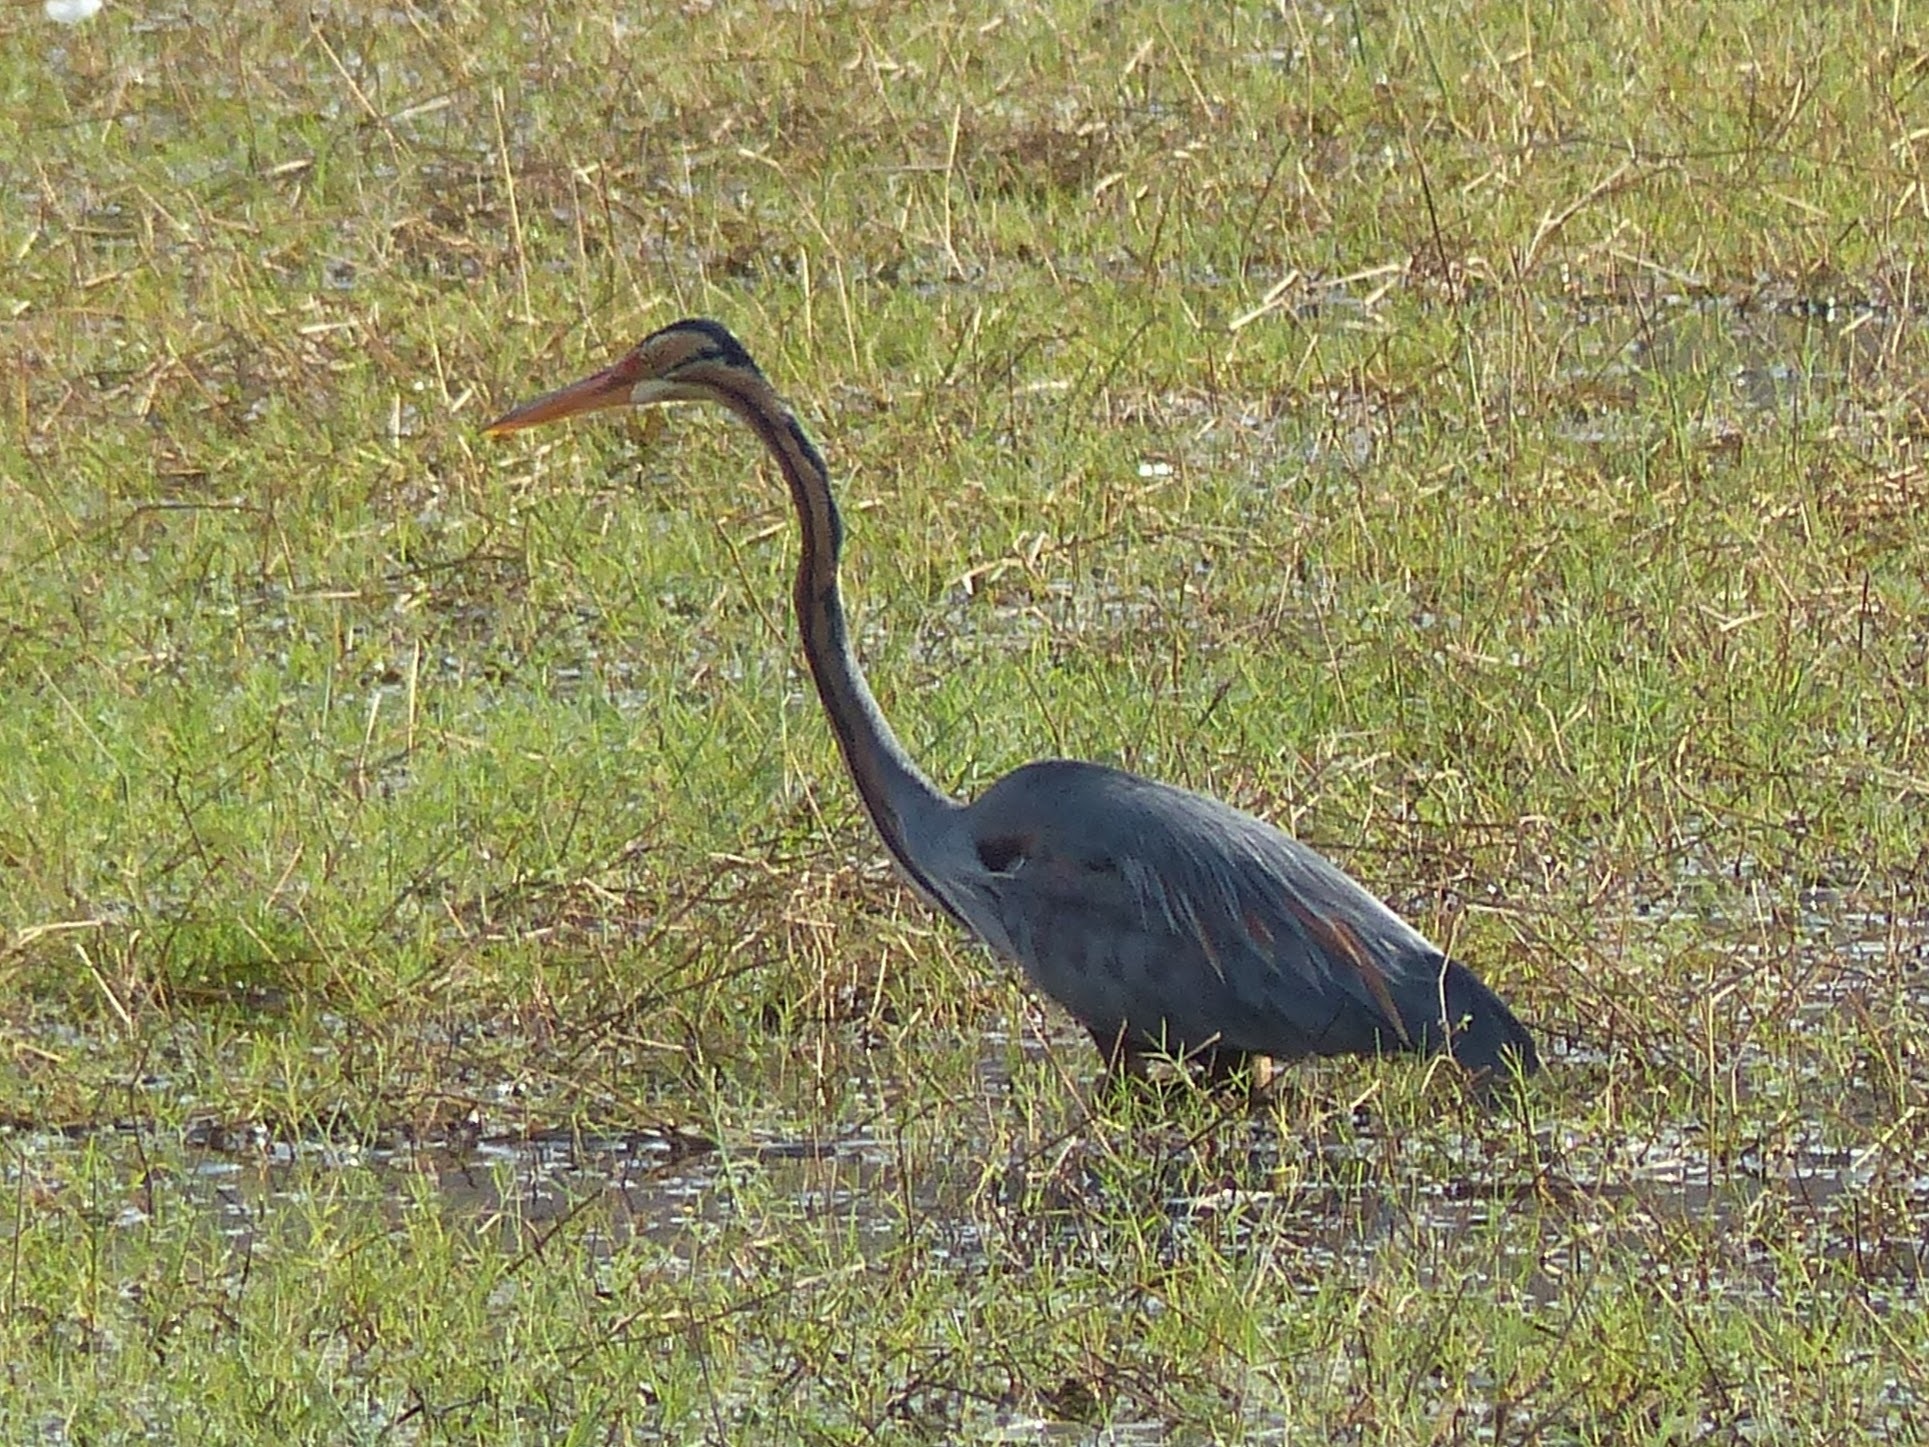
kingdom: Animalia
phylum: Chordata
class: Aves
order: Pelecaniformes
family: Ardeidae
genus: Ardea
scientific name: Ardea purpurea
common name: Purple heron
